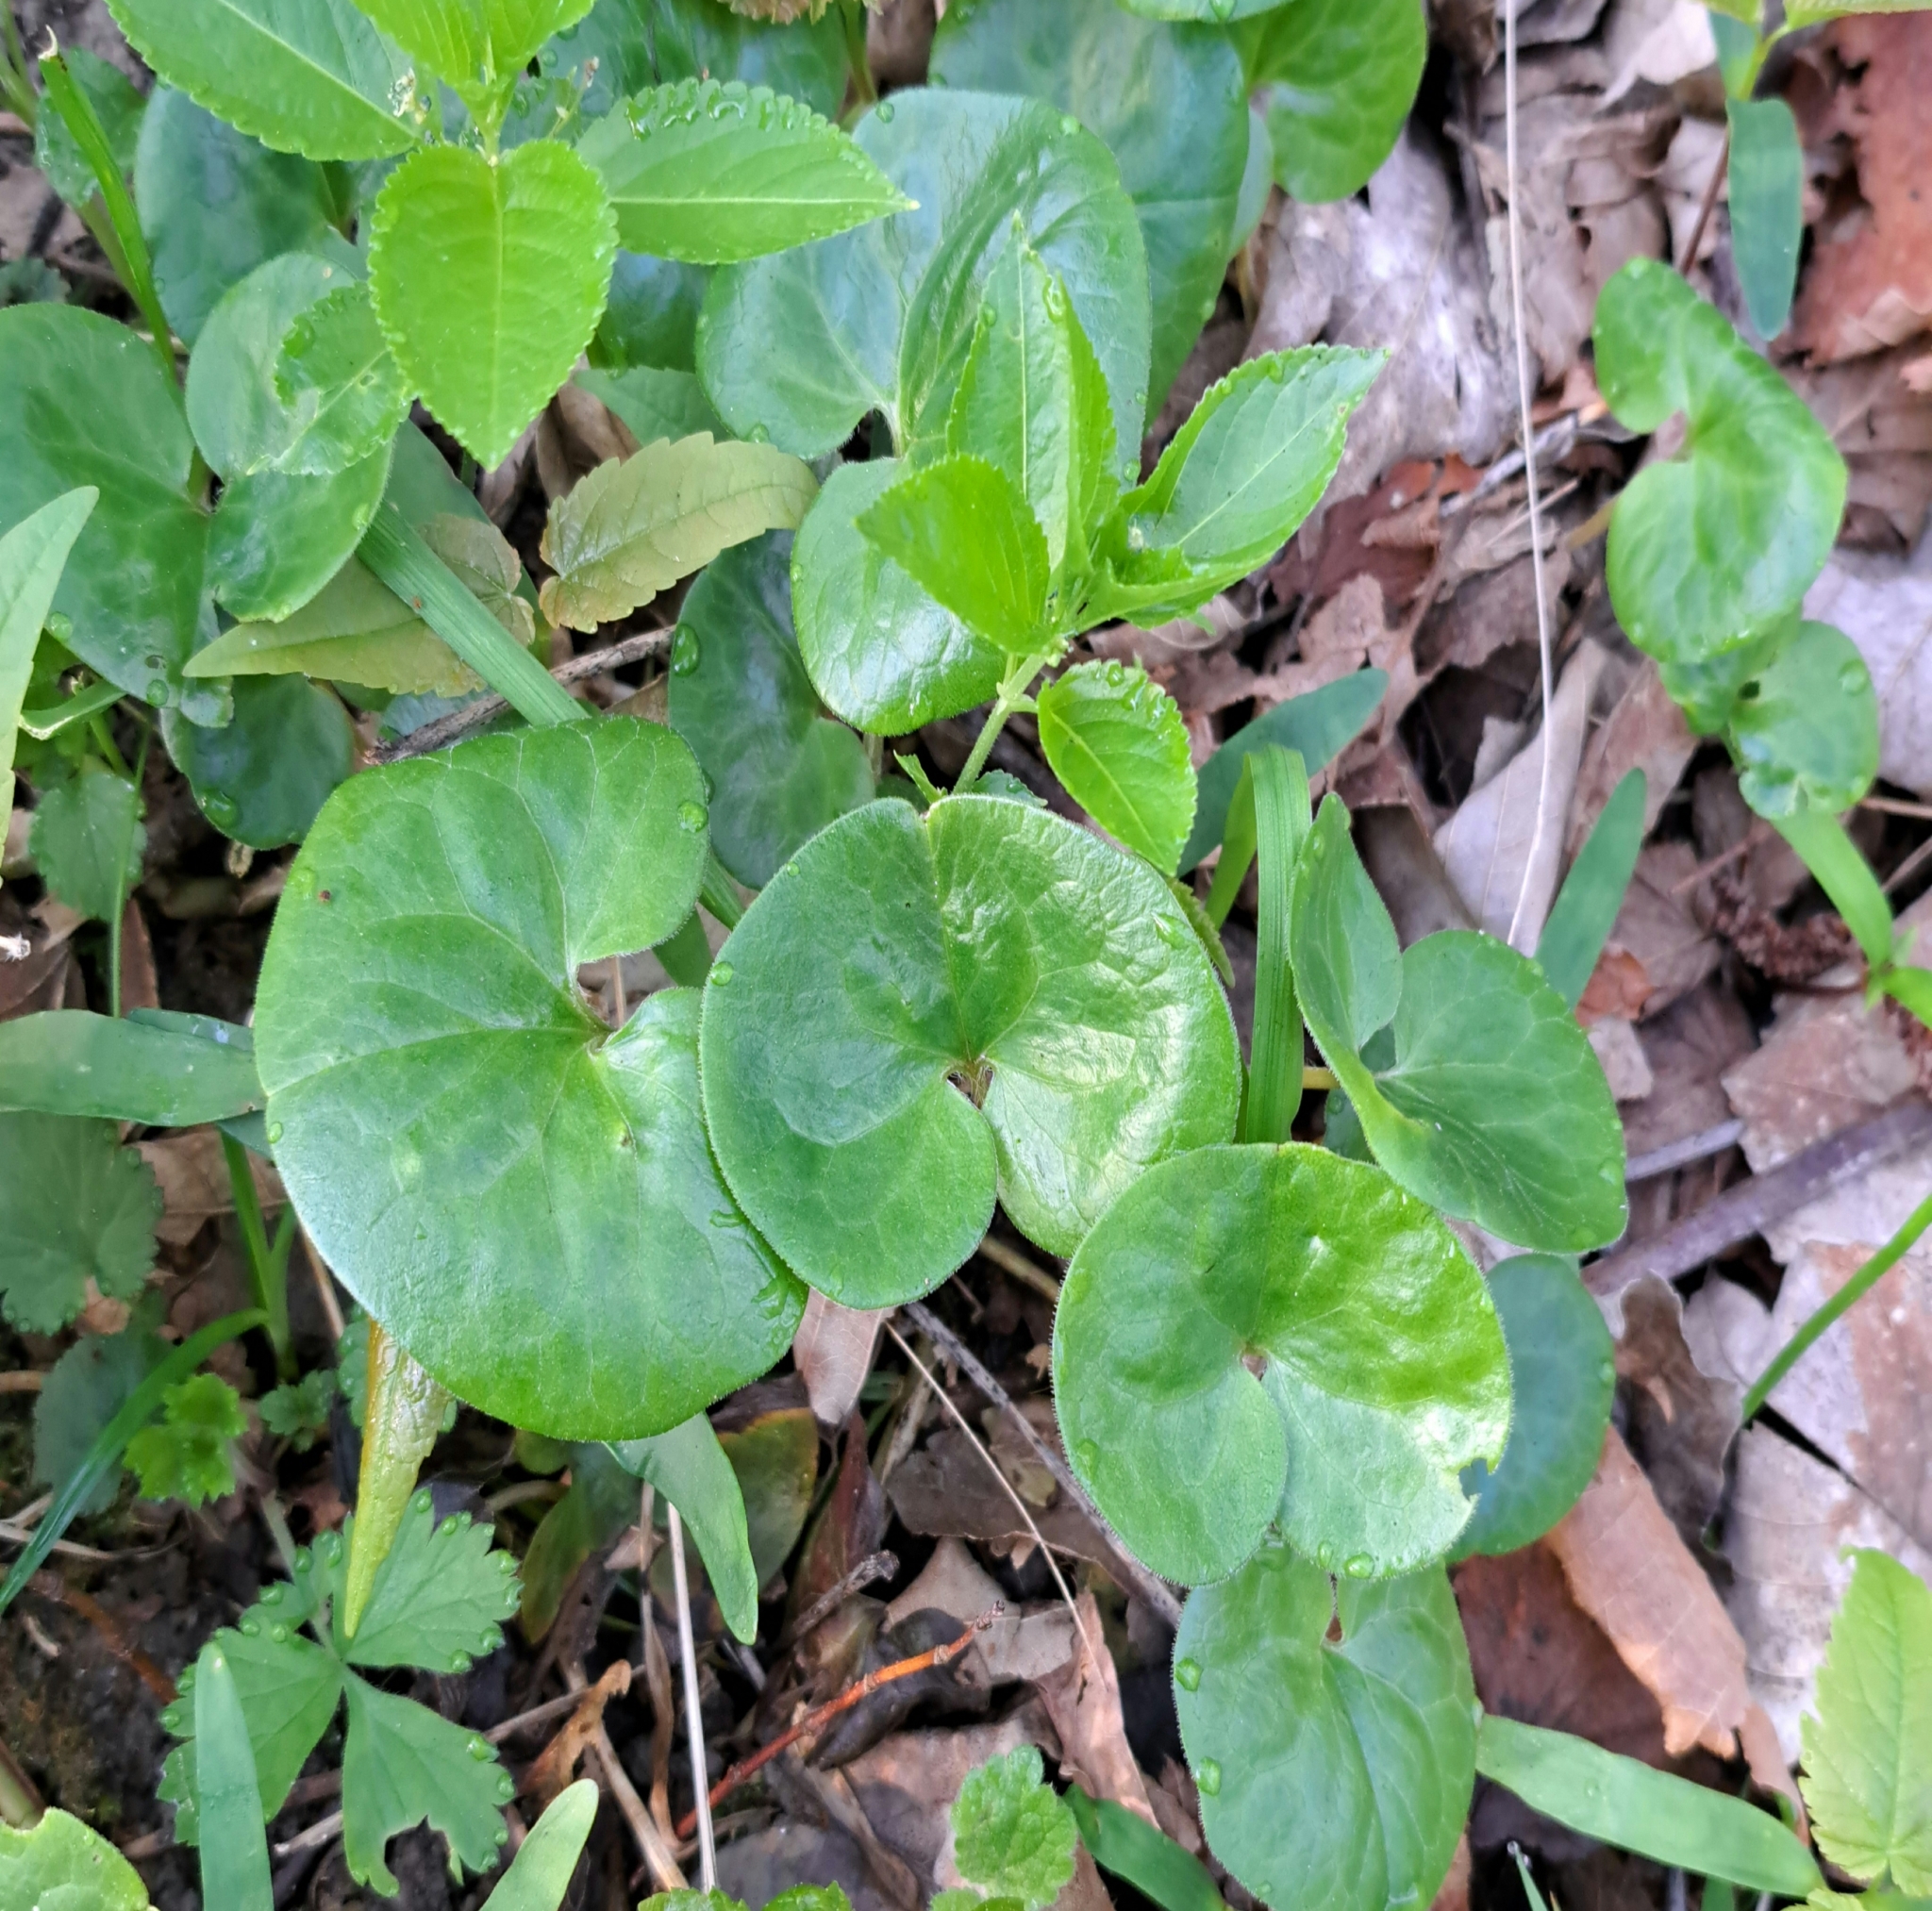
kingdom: Plantae
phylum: Tracheophyta
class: Magnoliopsida
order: Piperales
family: Aristolochiaceae
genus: Asarum
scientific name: Asarum europaeum
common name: Asarabacca
